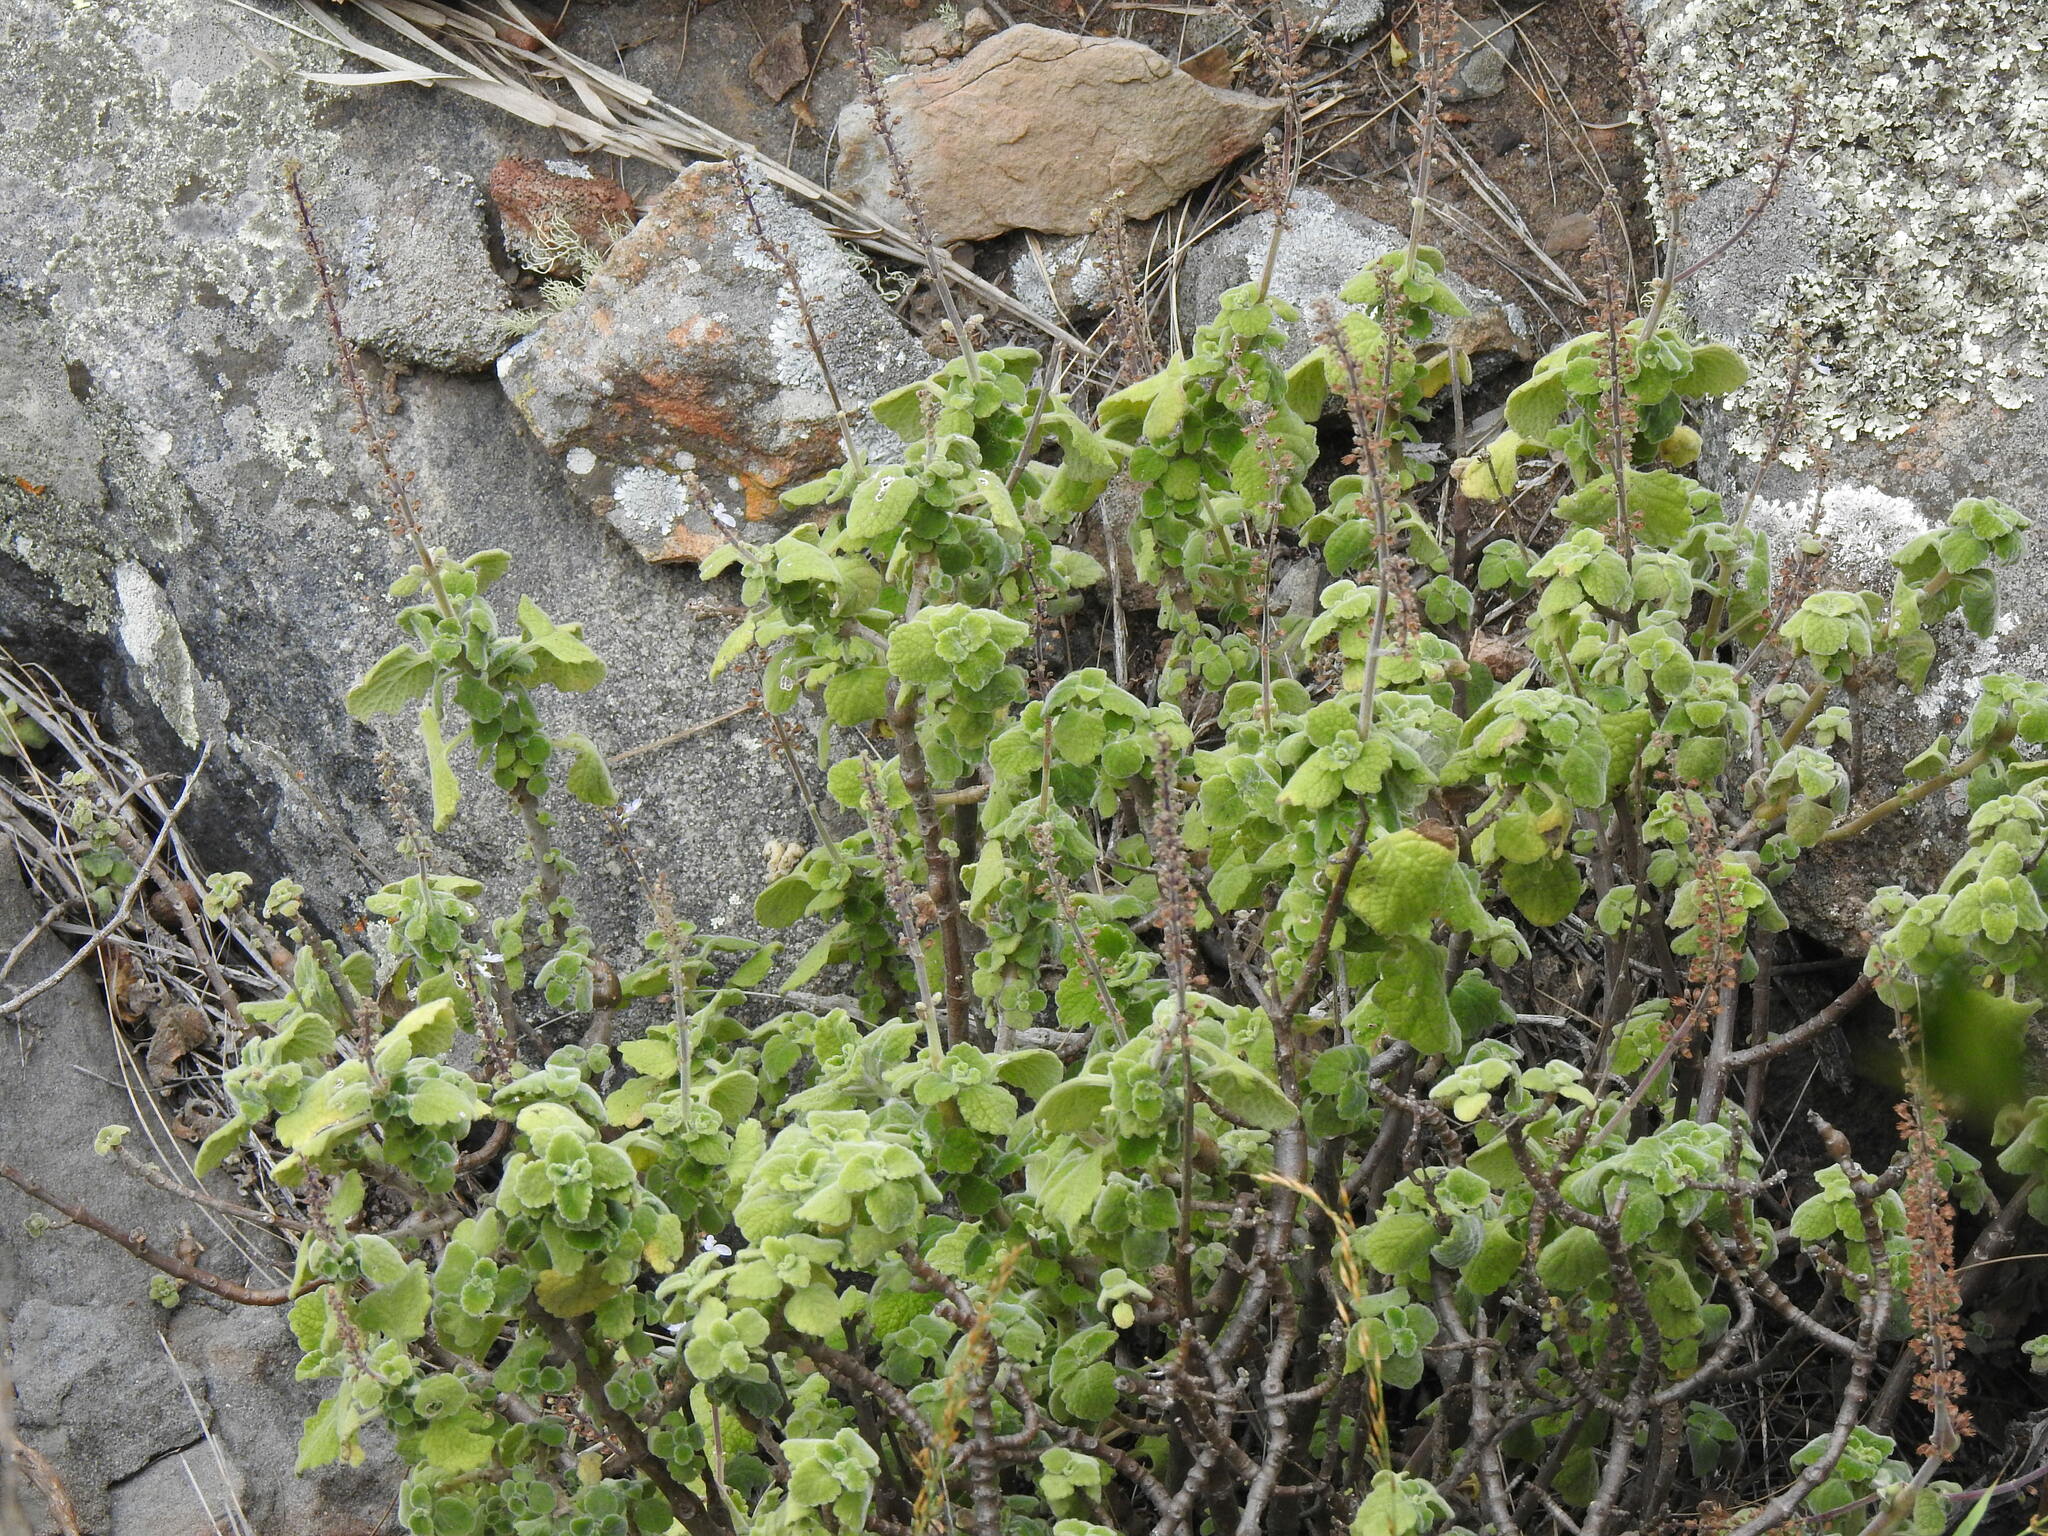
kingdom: Plantae
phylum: Tracheophyta
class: Magnoliopsida
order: Lamiales
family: Lamiaceae
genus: Coleus
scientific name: Coleus hadiensis
